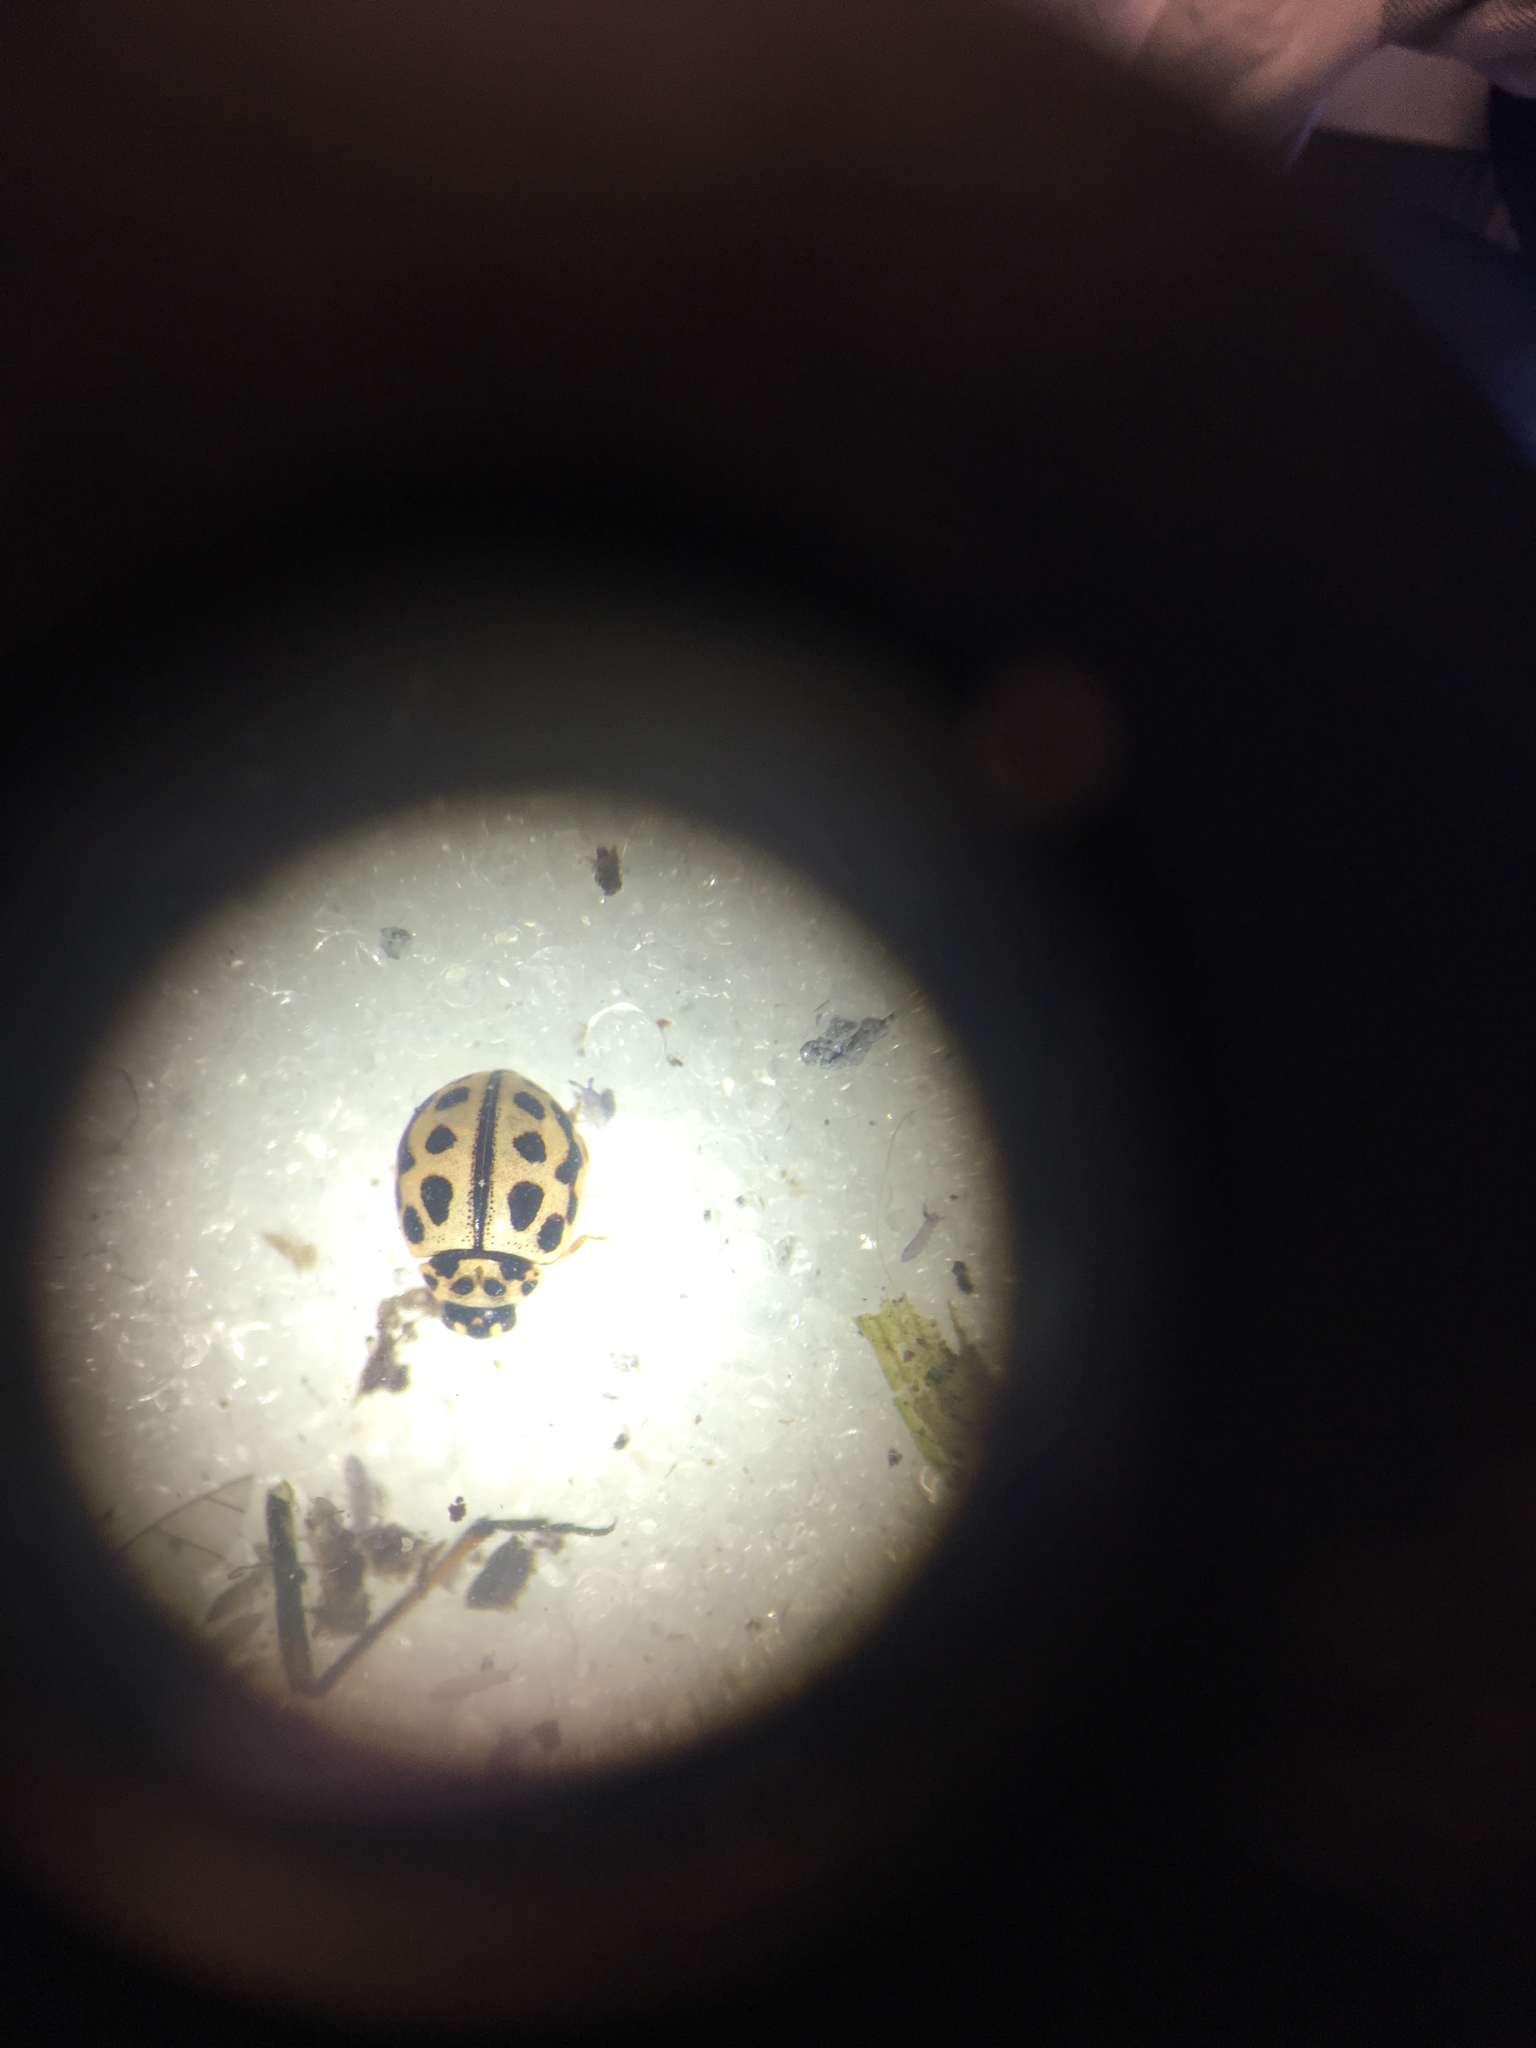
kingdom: Animalia
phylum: Arthropoda
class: Insecta
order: Coleoptera
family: Coccinellidae
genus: Tytthaspis
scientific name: Tytthaspis sedecimpunctata
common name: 16-spot ladybird
